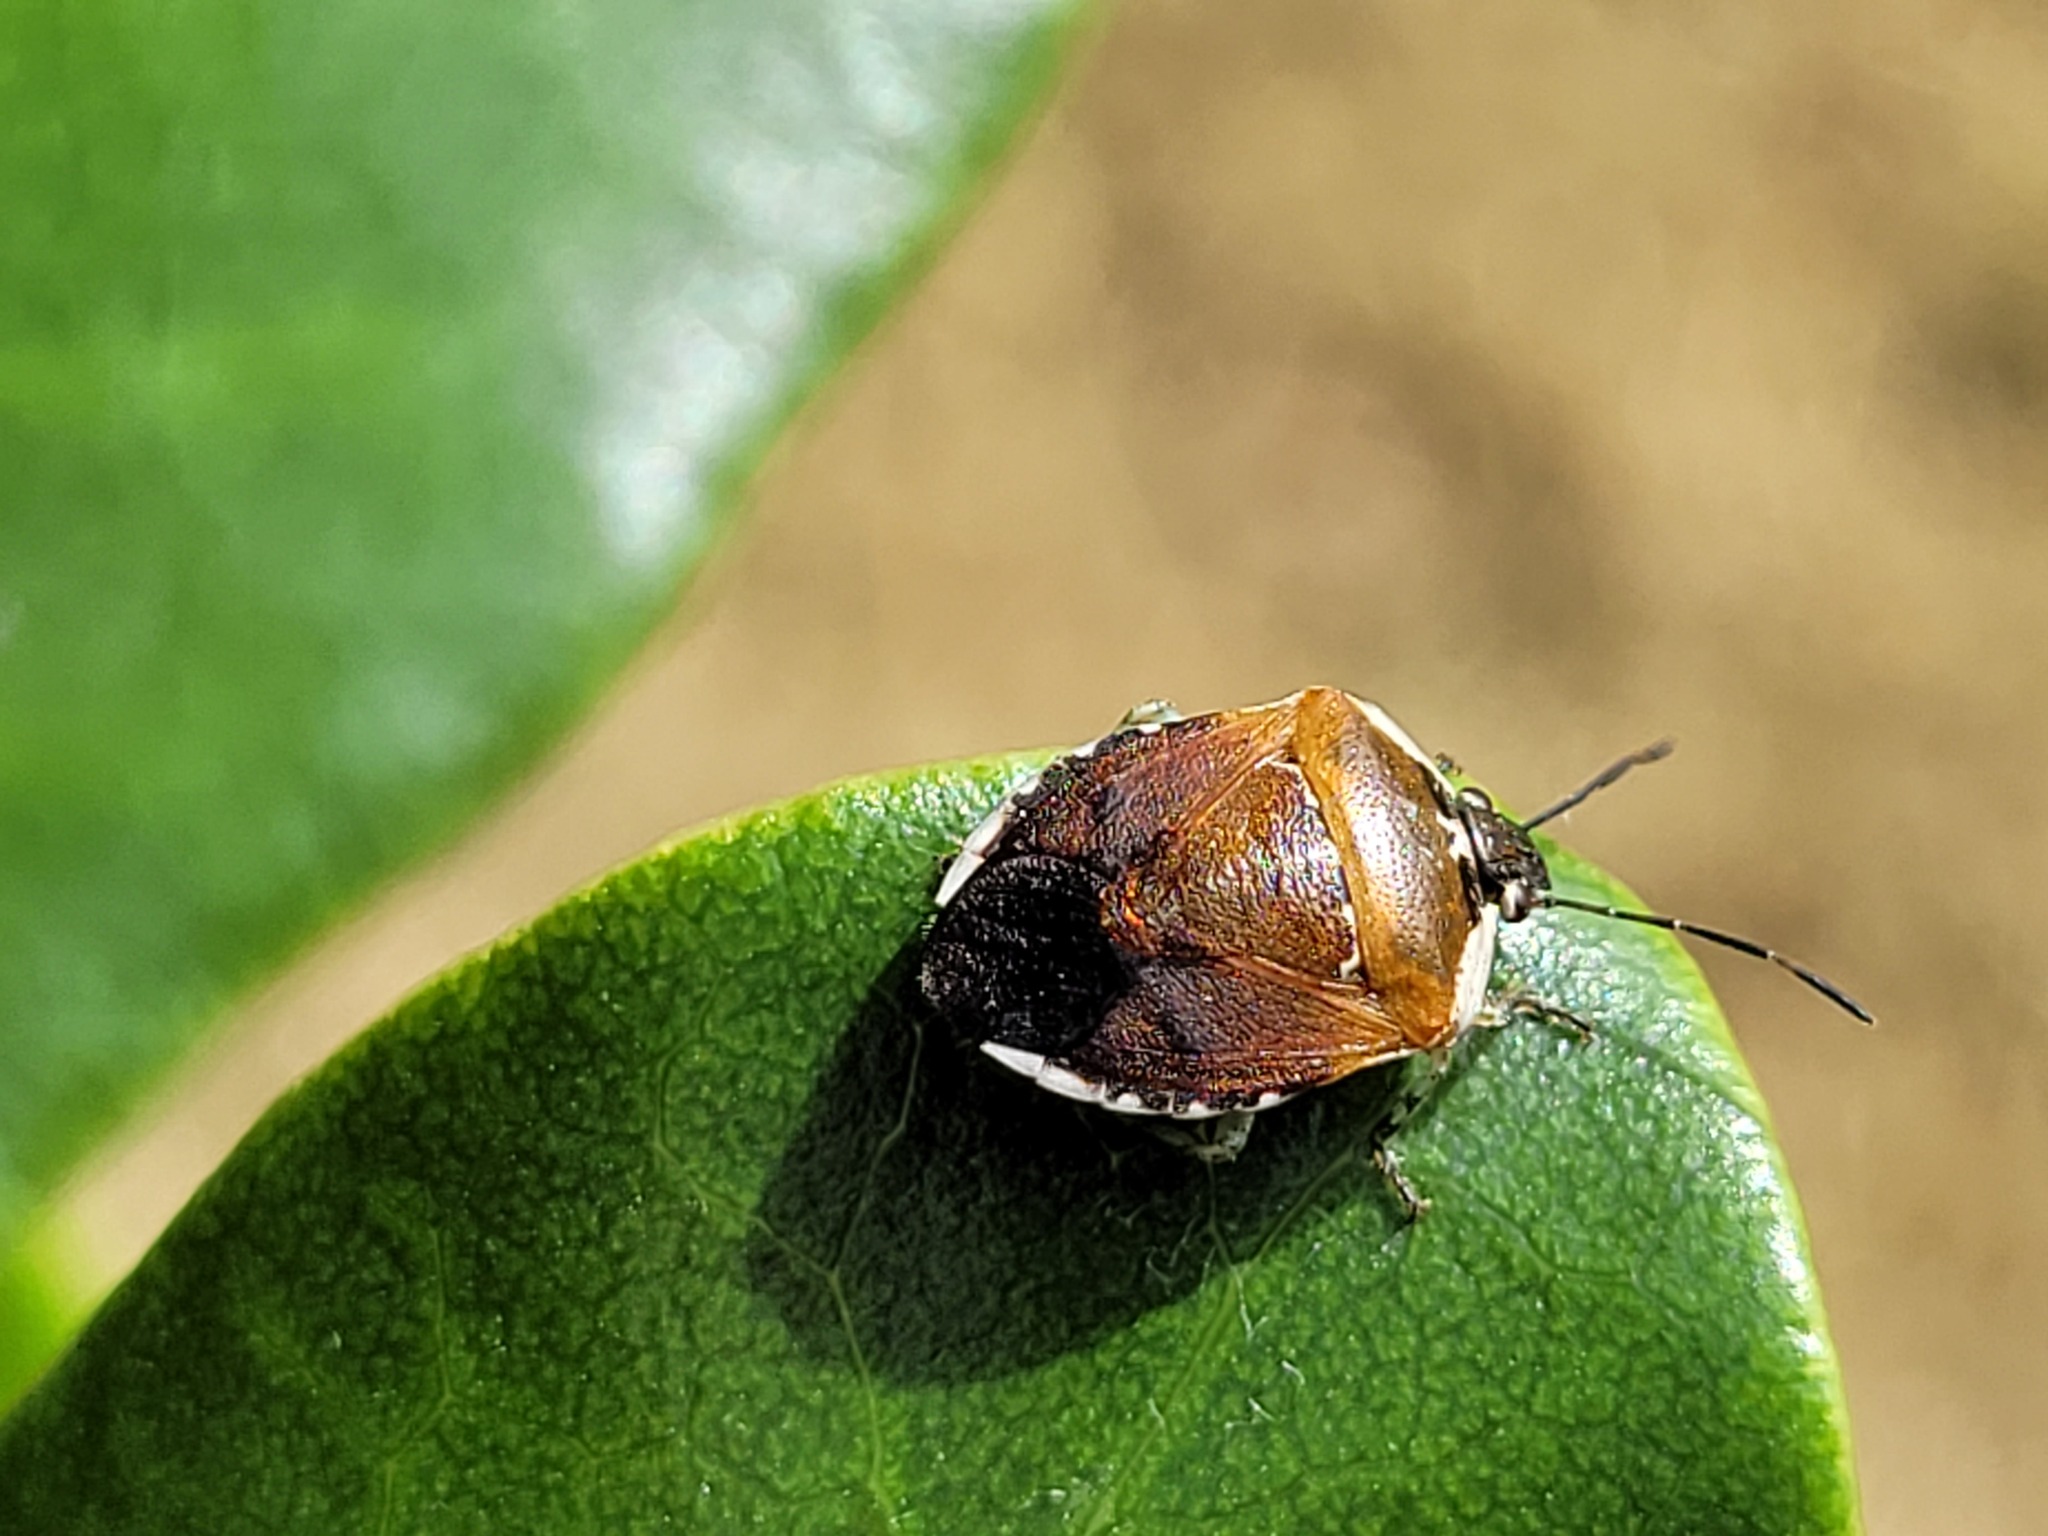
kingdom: Animalia
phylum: Arthropoda
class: Insecta
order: Hemiptera
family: Pentatomidae
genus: Monteithiella
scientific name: Monteithiella
